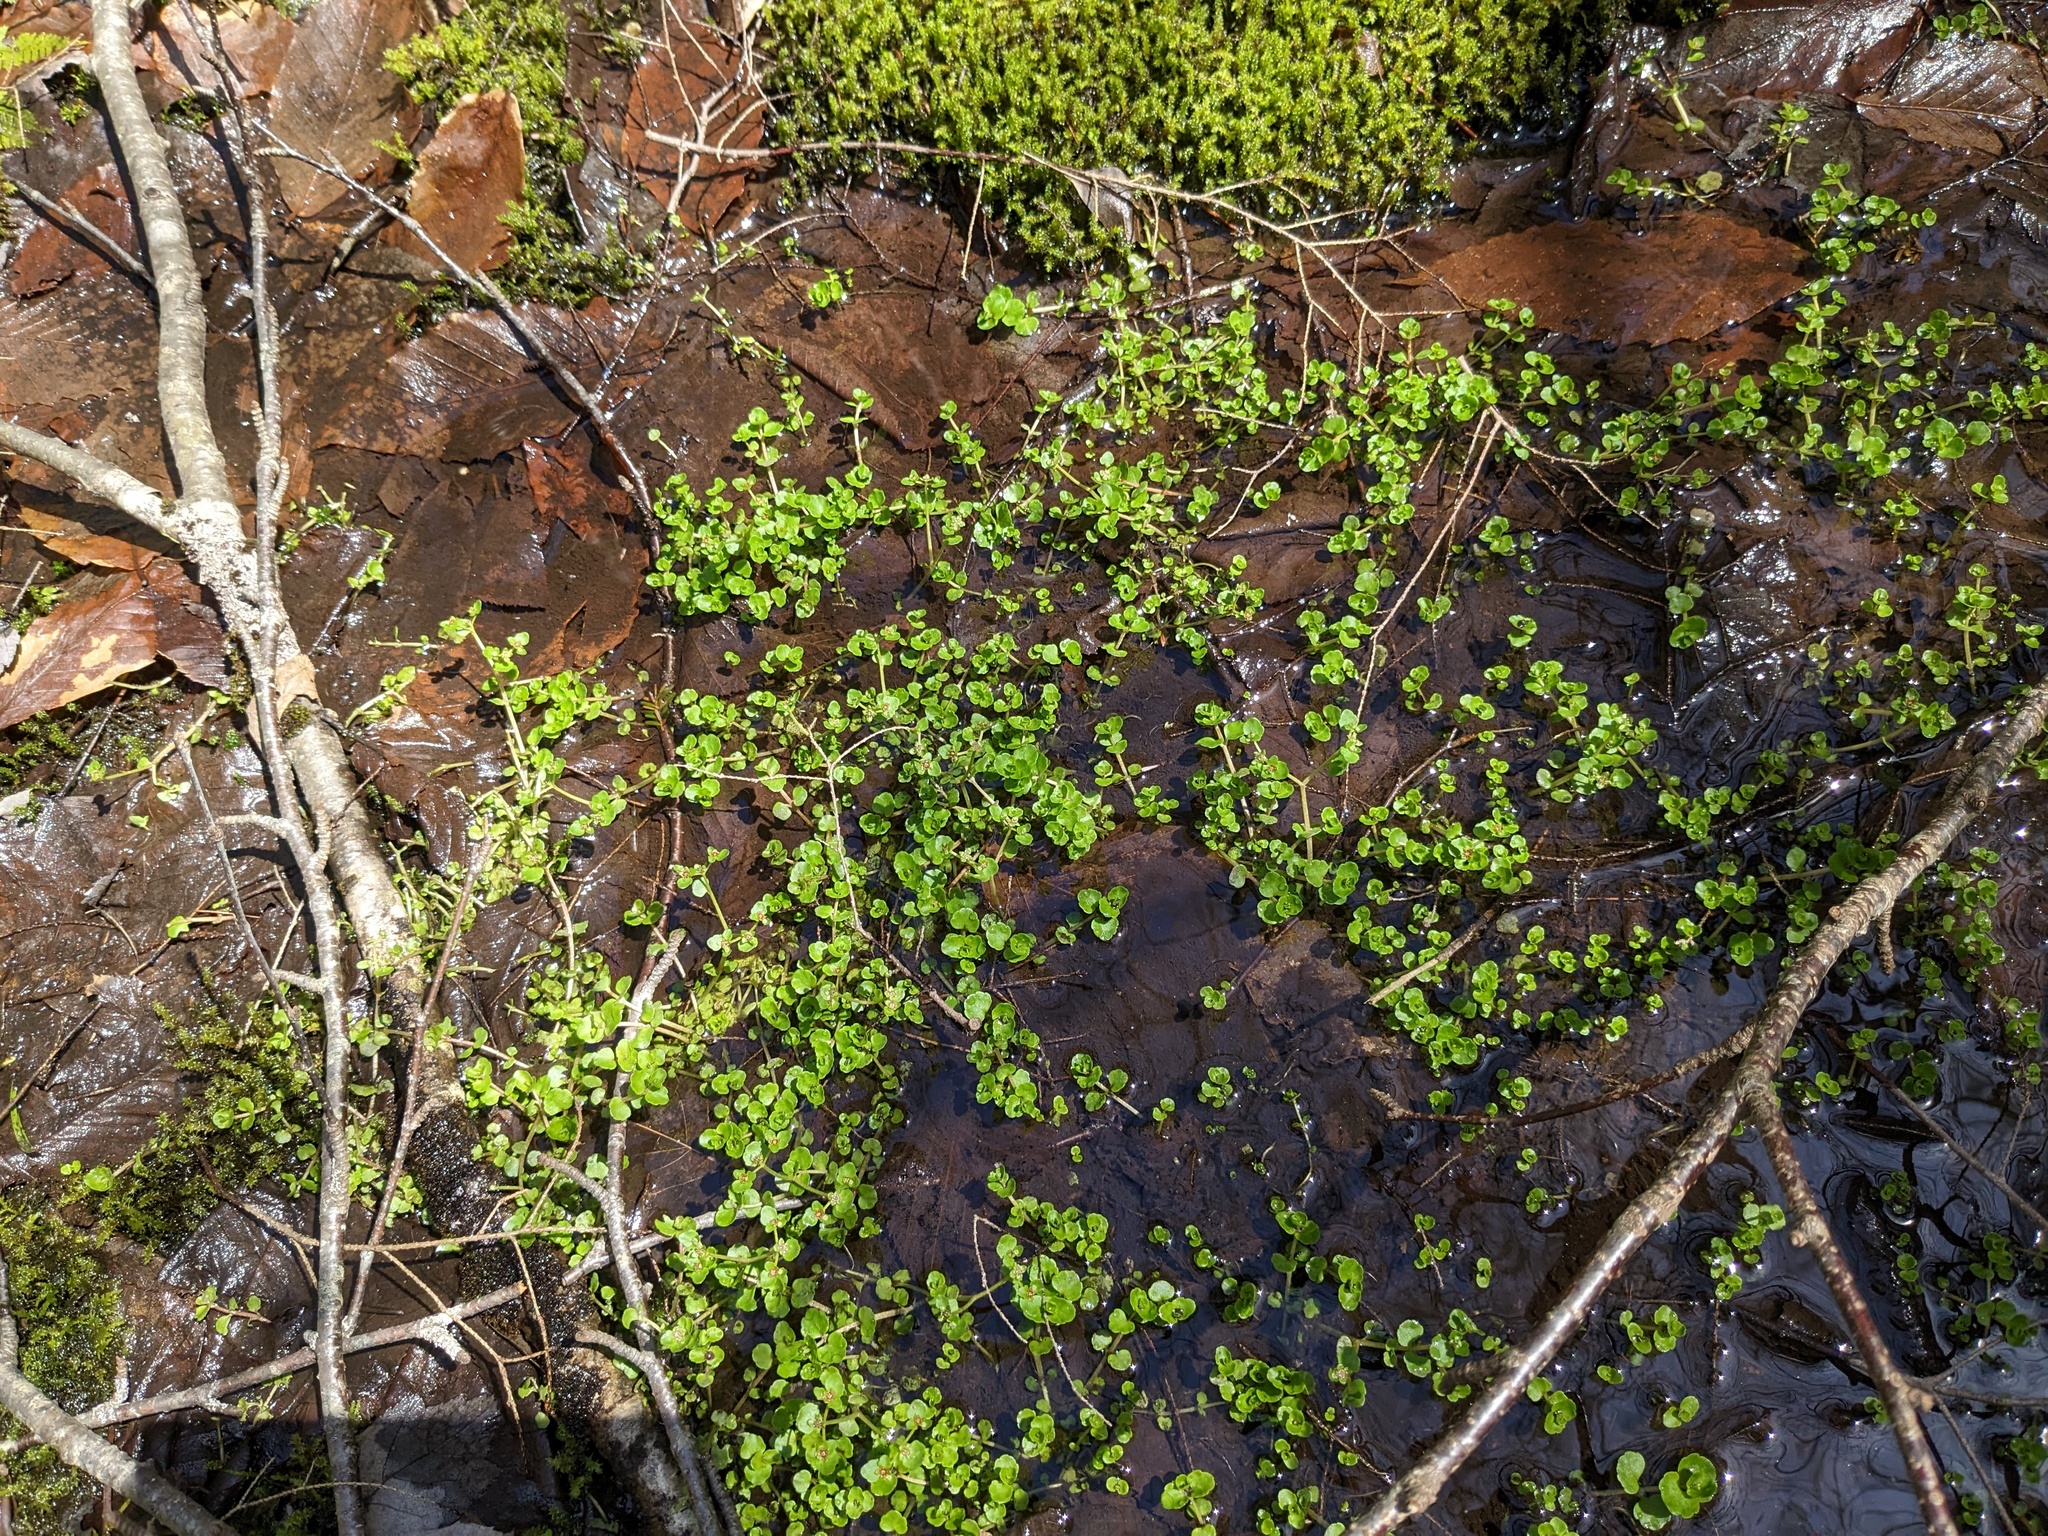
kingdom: Plantae
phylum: Tracheophyta
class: Magnoliopsida
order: Saxifragales
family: Saxifragaceae
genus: Chrysosplenium
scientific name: Chrysosplenium americanum
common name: American golden-saxifrage
